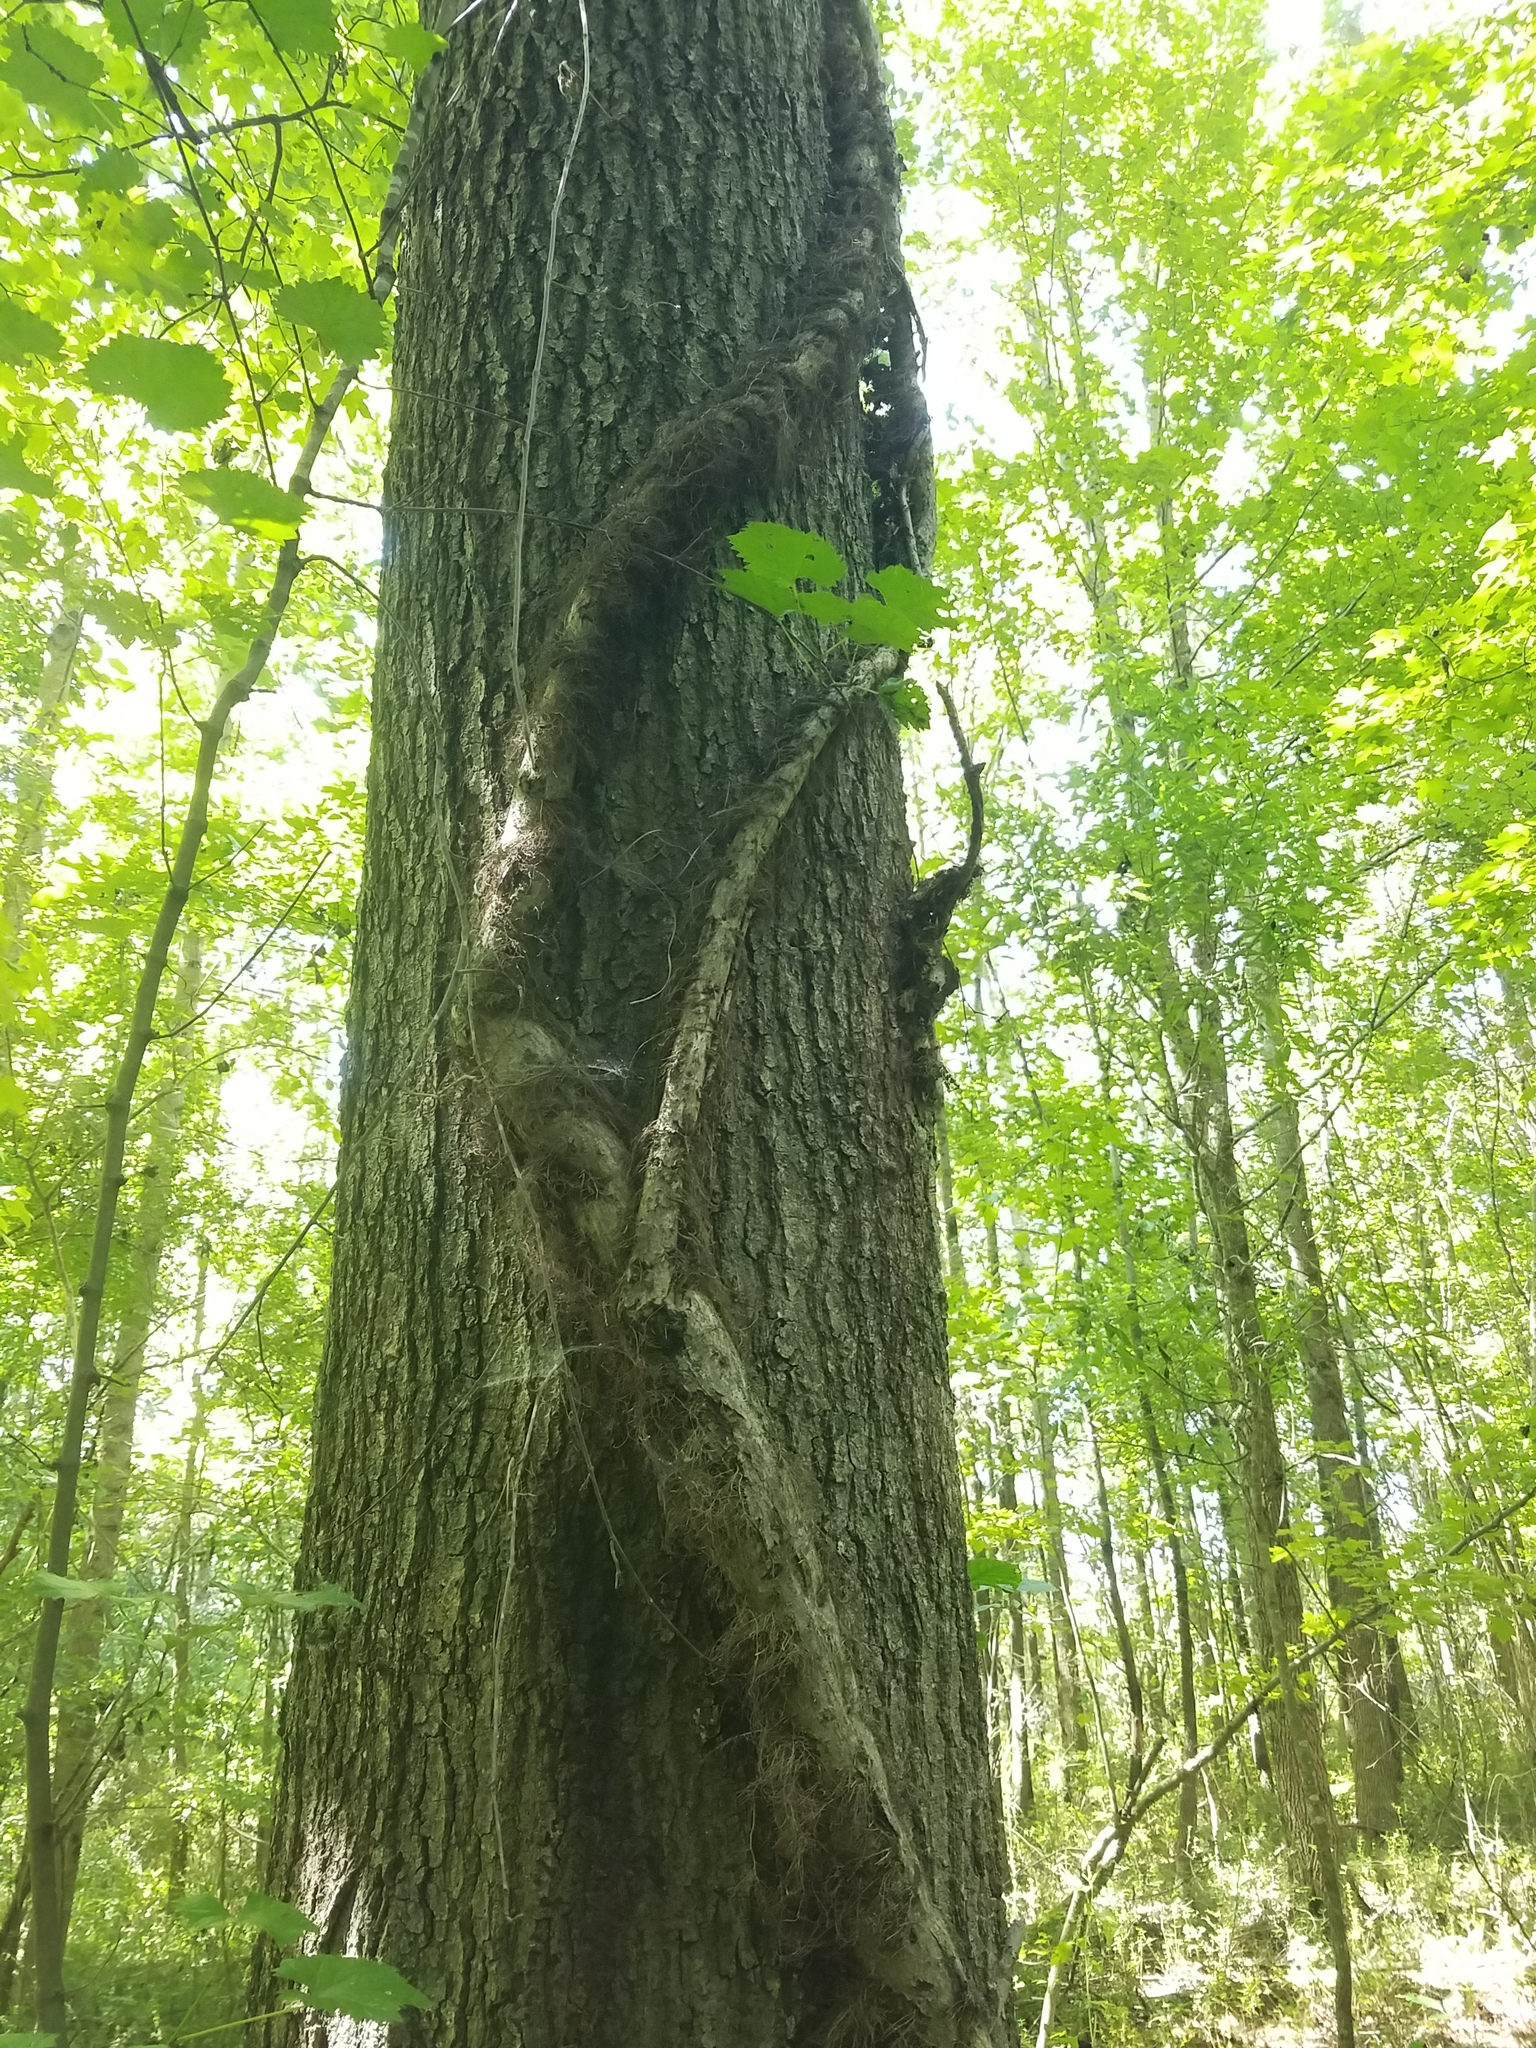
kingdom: Plantae
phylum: Tracheophyta
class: Magnoliopsida
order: Vitales
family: Vitaceae
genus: Vitis
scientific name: Vitis rotundifolia
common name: Muscadine grape
